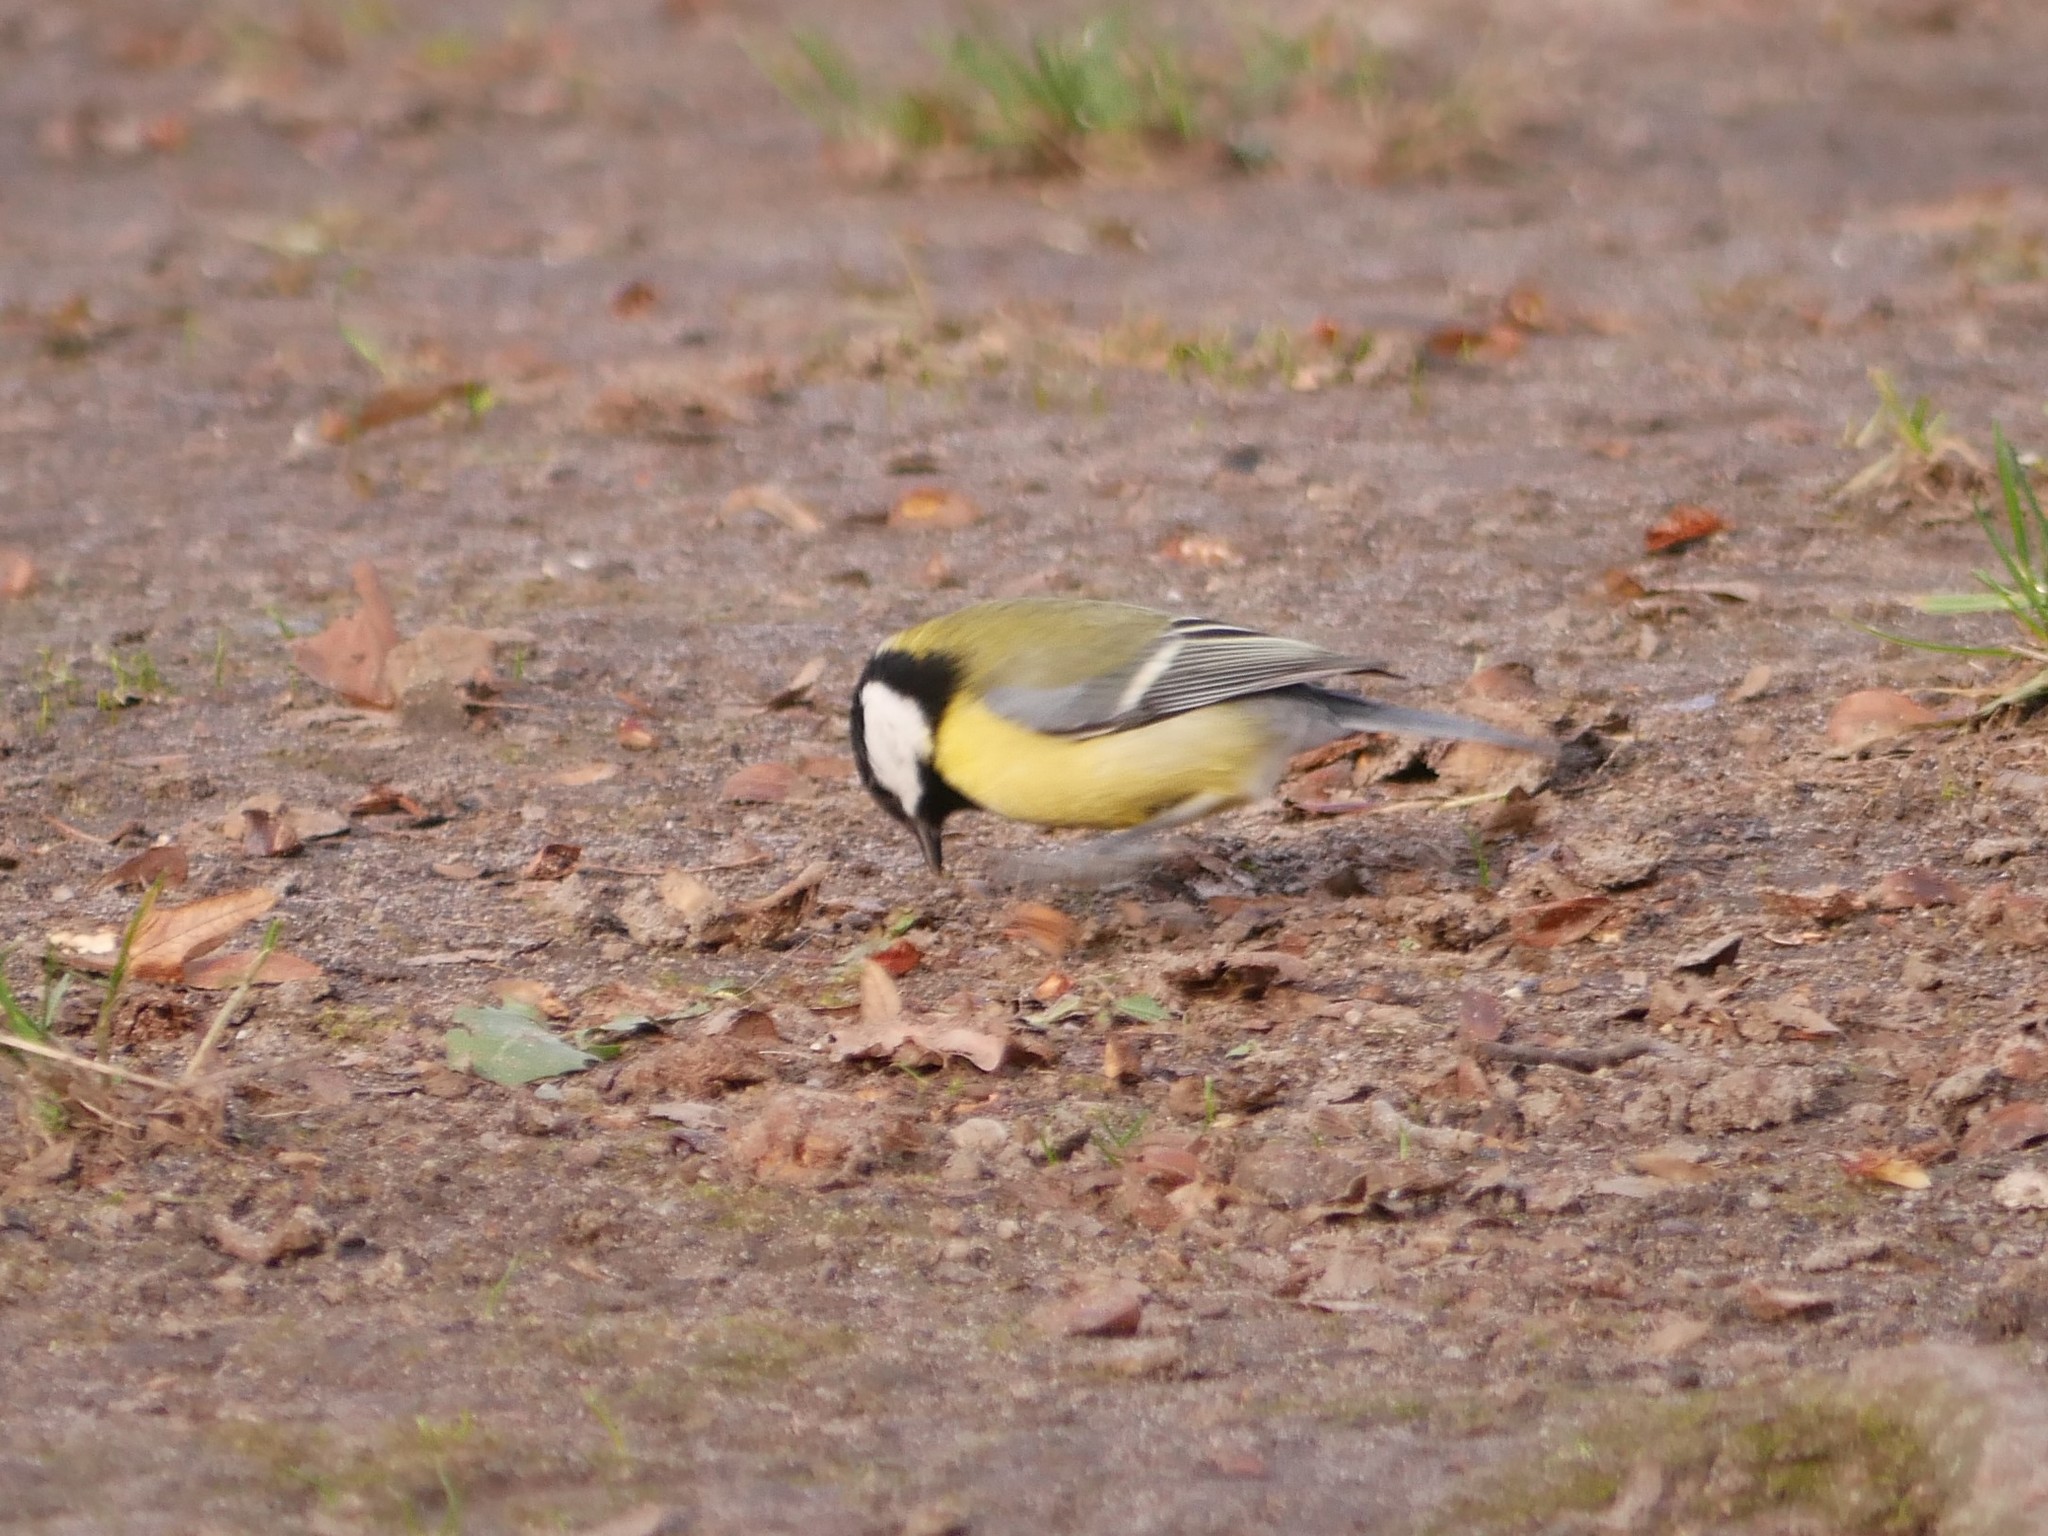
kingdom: Animalia
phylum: Chordata
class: Aves
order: Passeriformes
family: Paridae
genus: Parus
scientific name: Parus major
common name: Great tit
